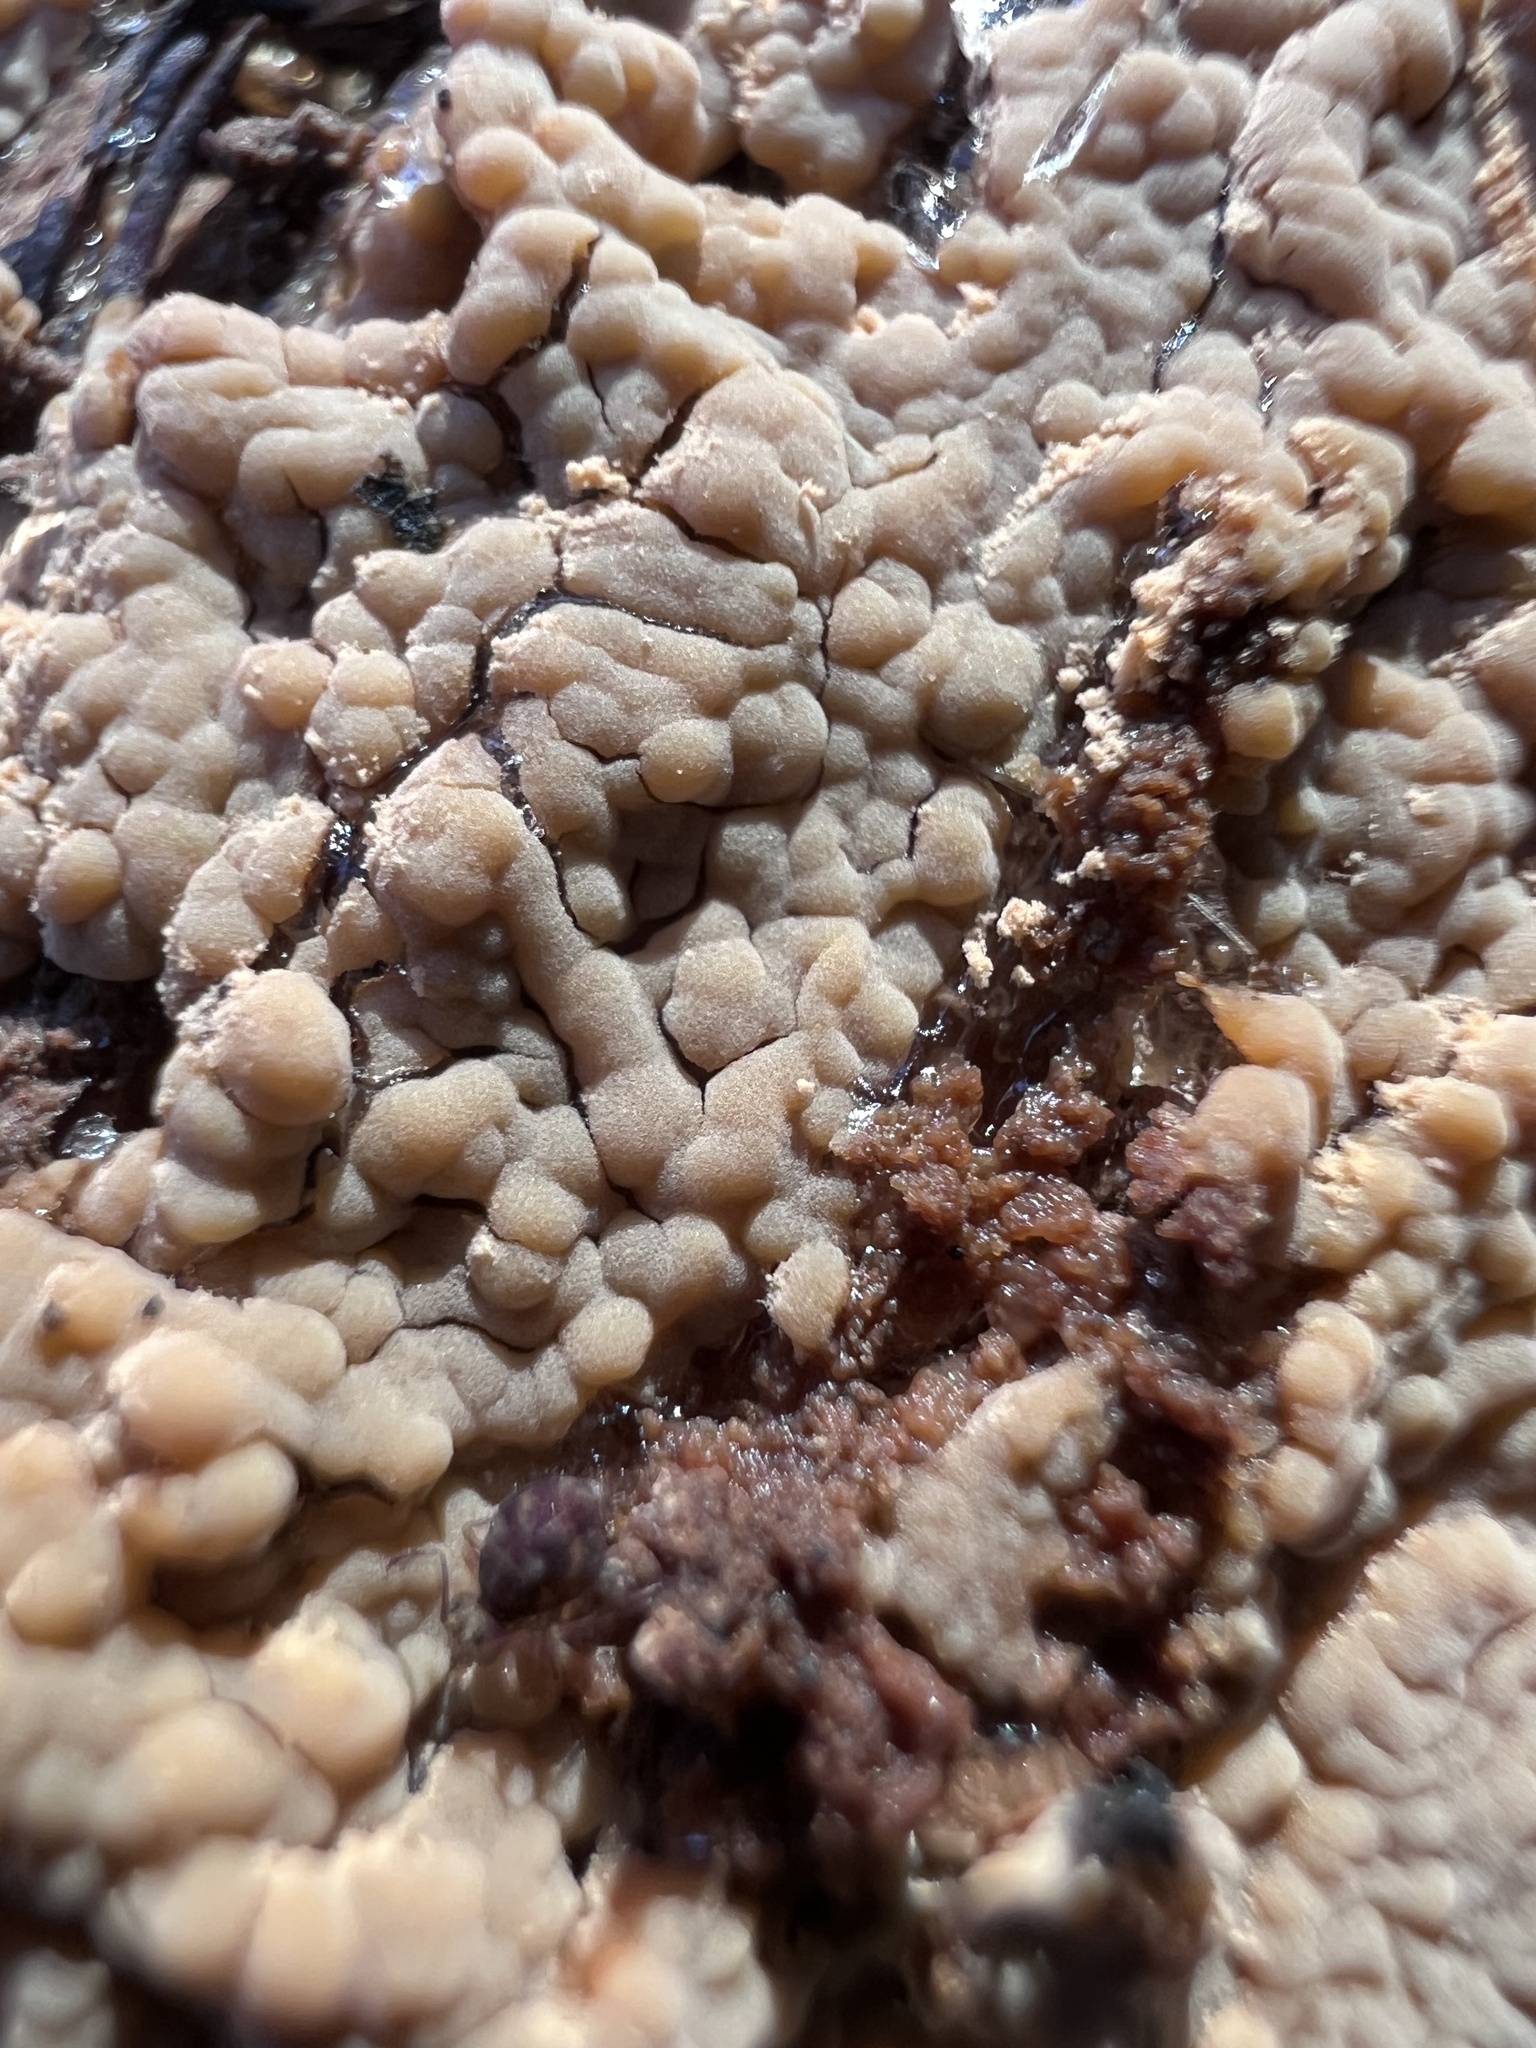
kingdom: Fungi
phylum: Basidiomycota
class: Agaricomycetes
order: Russulales
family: Peniophoraceae
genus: Dichostereum
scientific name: Dichostereum effuscatum
